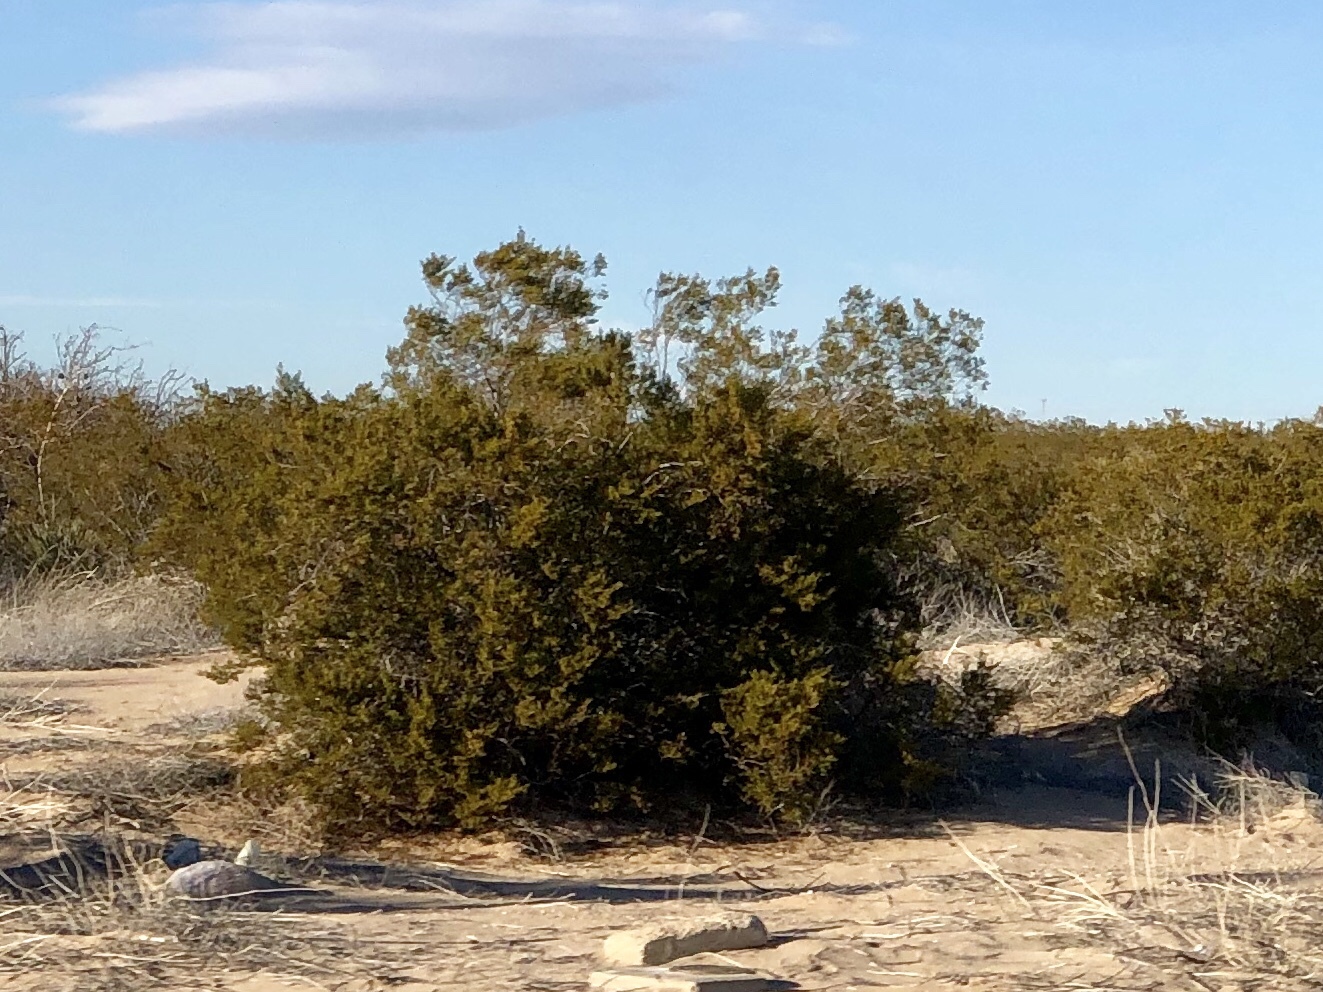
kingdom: Plantae
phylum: Tracheophyta
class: Magnoliopsida
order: Zygophyllales
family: Zygophyllaceae
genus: Larrea
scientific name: Larrea tridentata
